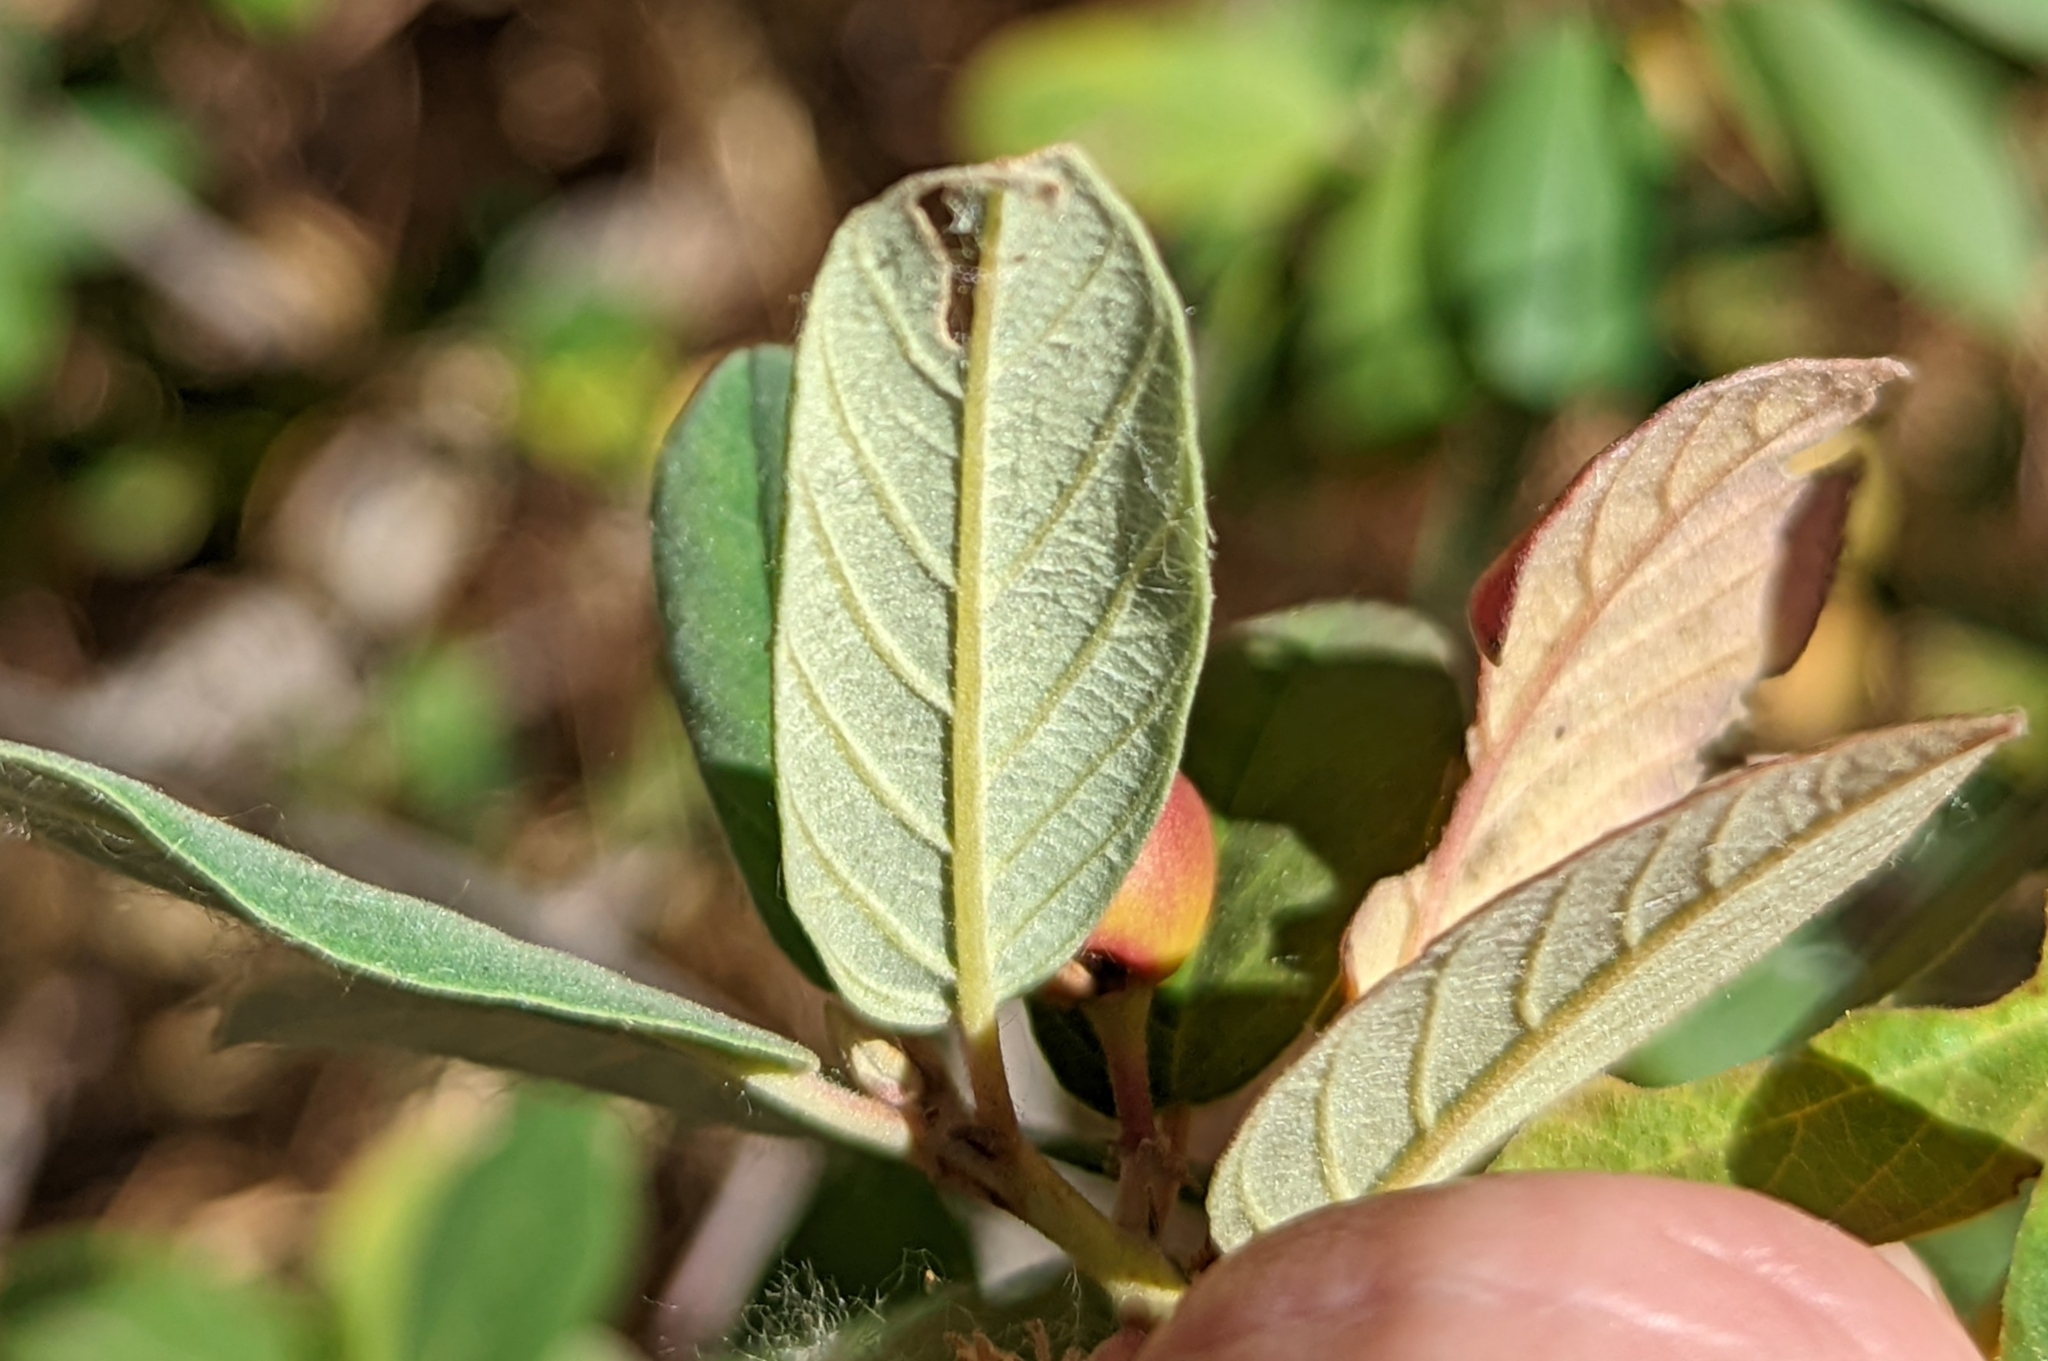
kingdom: Plantae
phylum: Tracheophyta
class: Magnoliopsida
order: Rosales
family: Rhamnaceae
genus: Frangula
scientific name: Frangula californica
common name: California buckthorn
